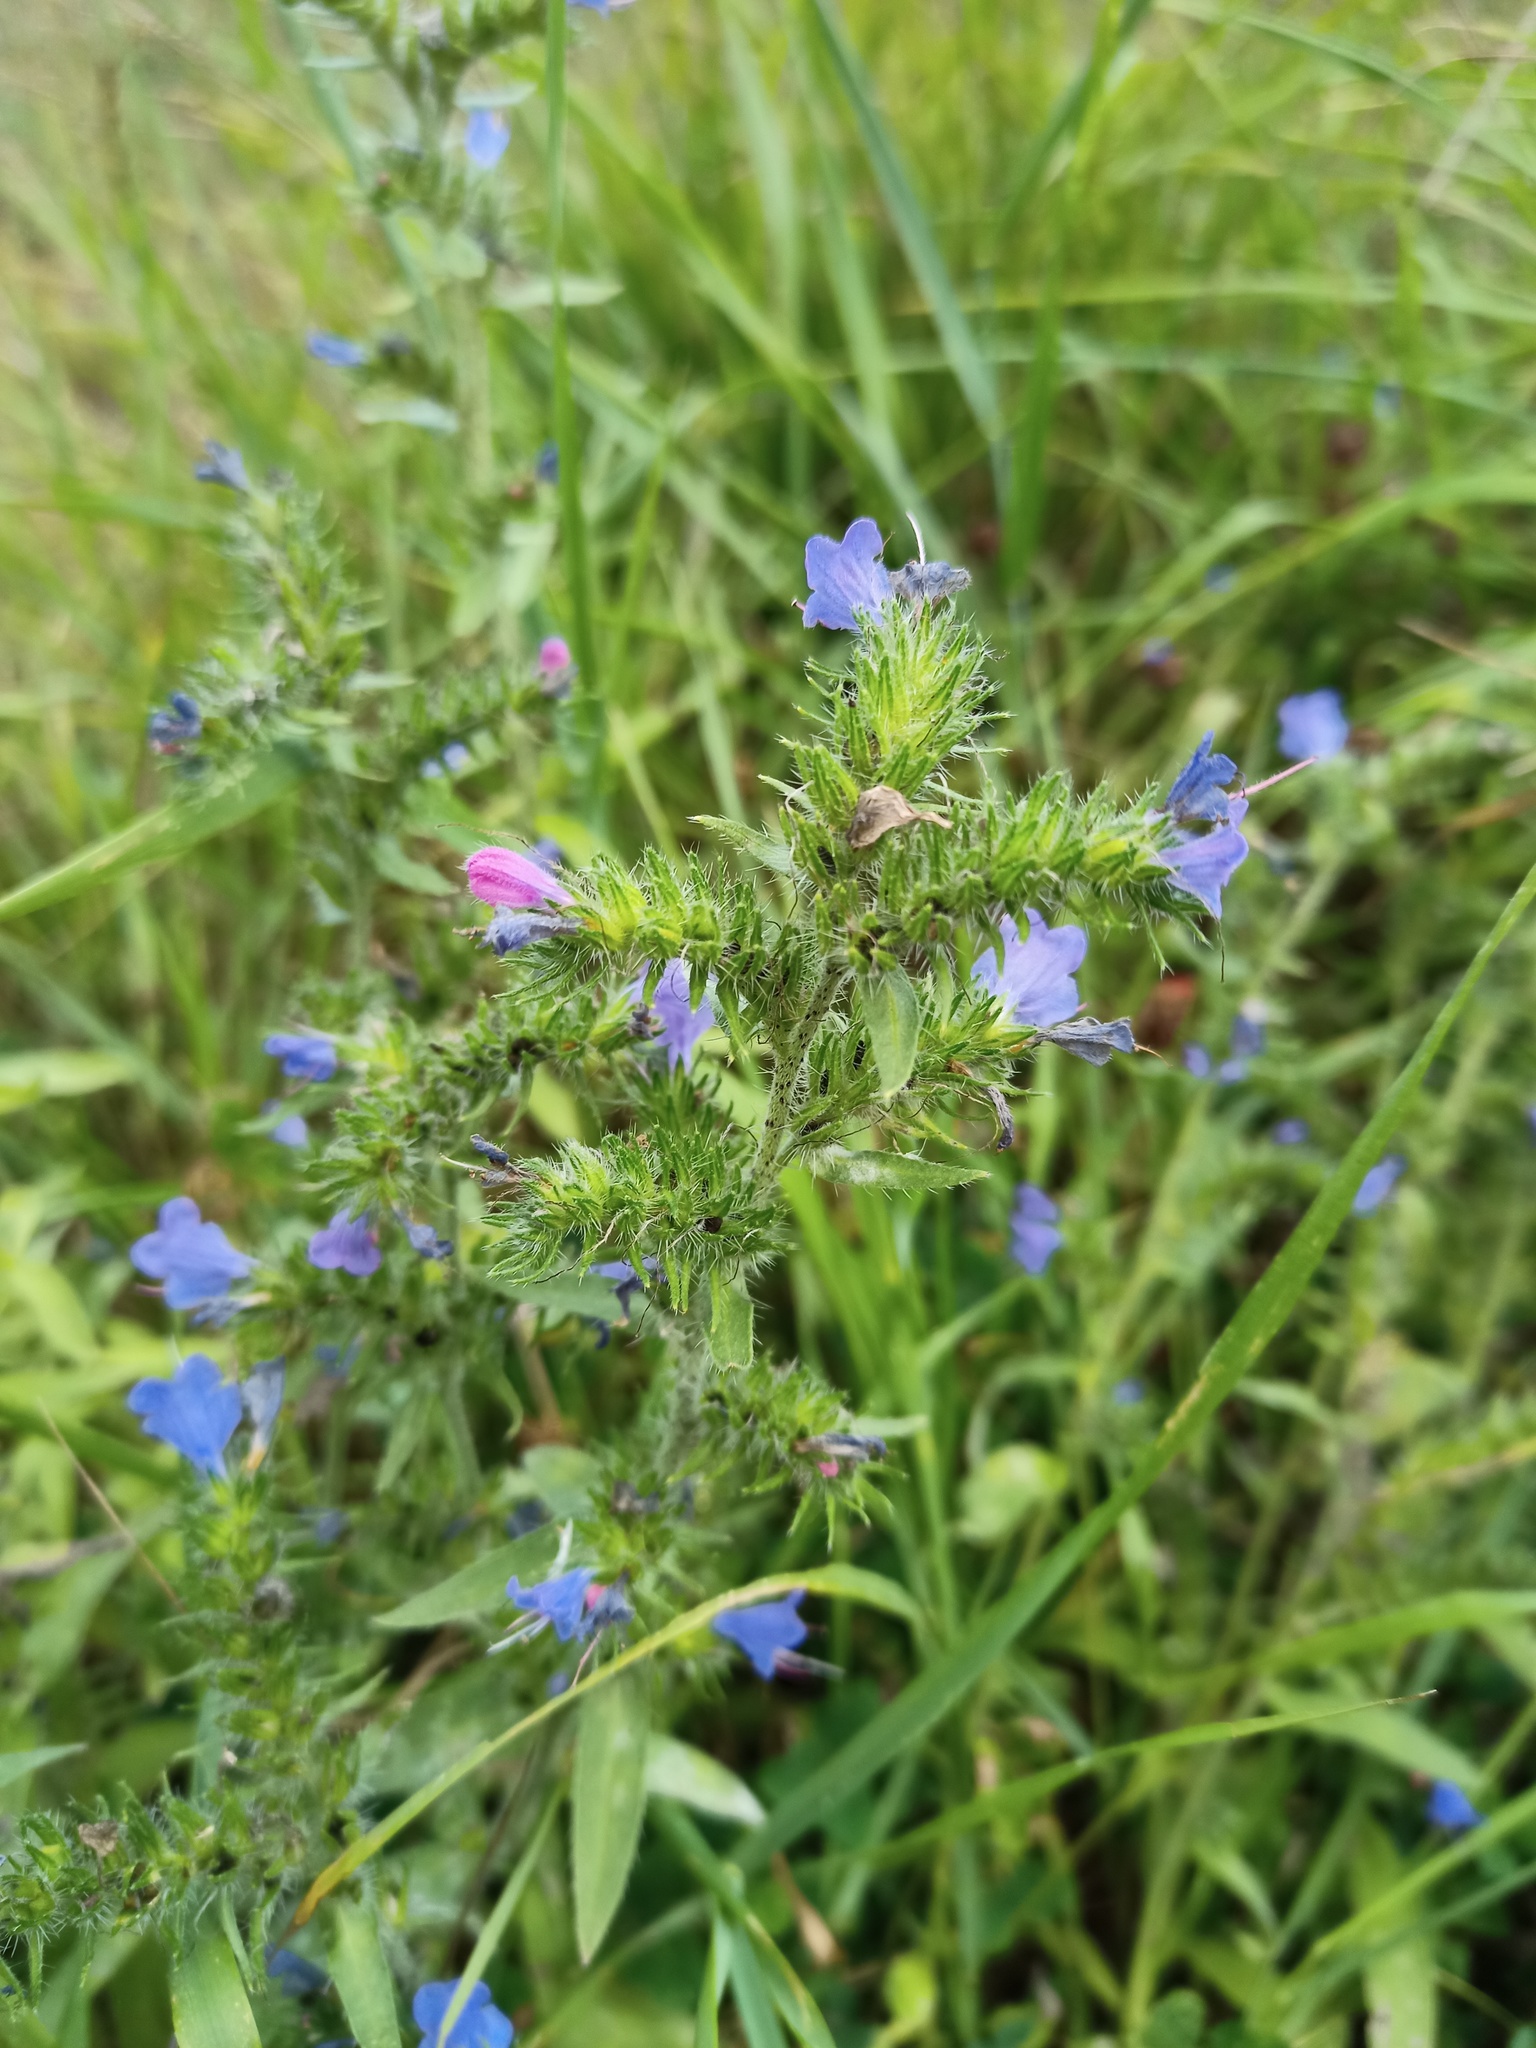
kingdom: Plantae
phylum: Tracheophyta
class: Magnoliopsida
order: Boraginales
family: Boraginaceae
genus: Echium
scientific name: Echium vulgare
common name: Common viper's bugloss
